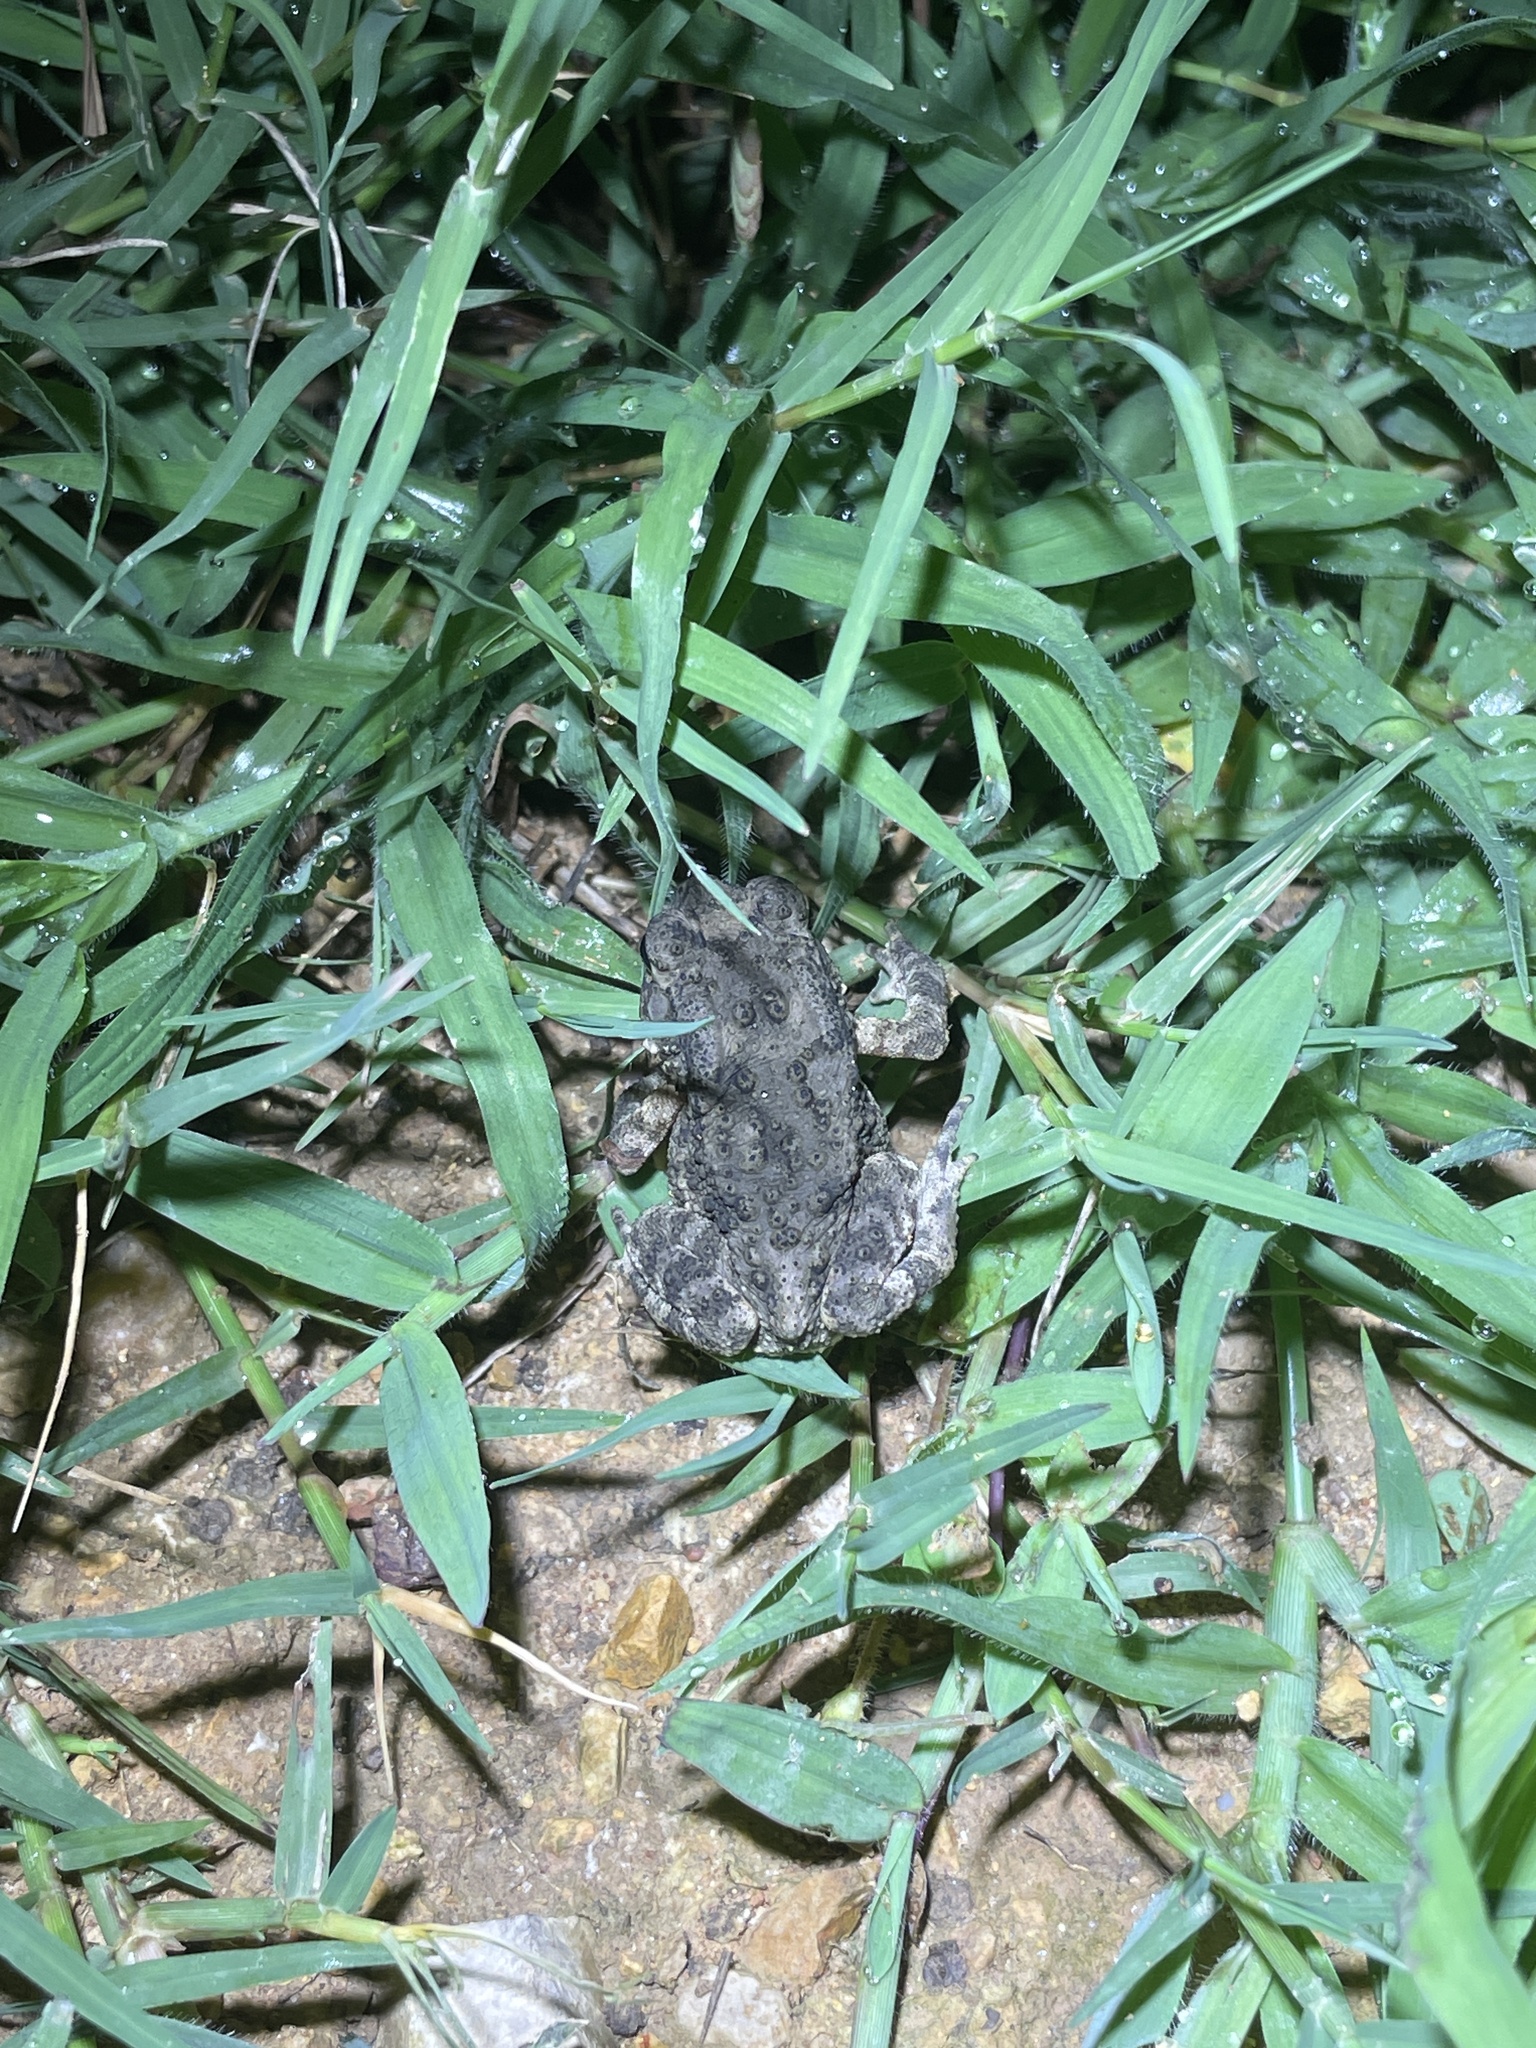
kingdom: Animalia
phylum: Chordata
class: Amphibia
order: Anura
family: Bufonidae
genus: Duttaphrynus
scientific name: Duttaphrynus melanostictus
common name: Common sunda toad
